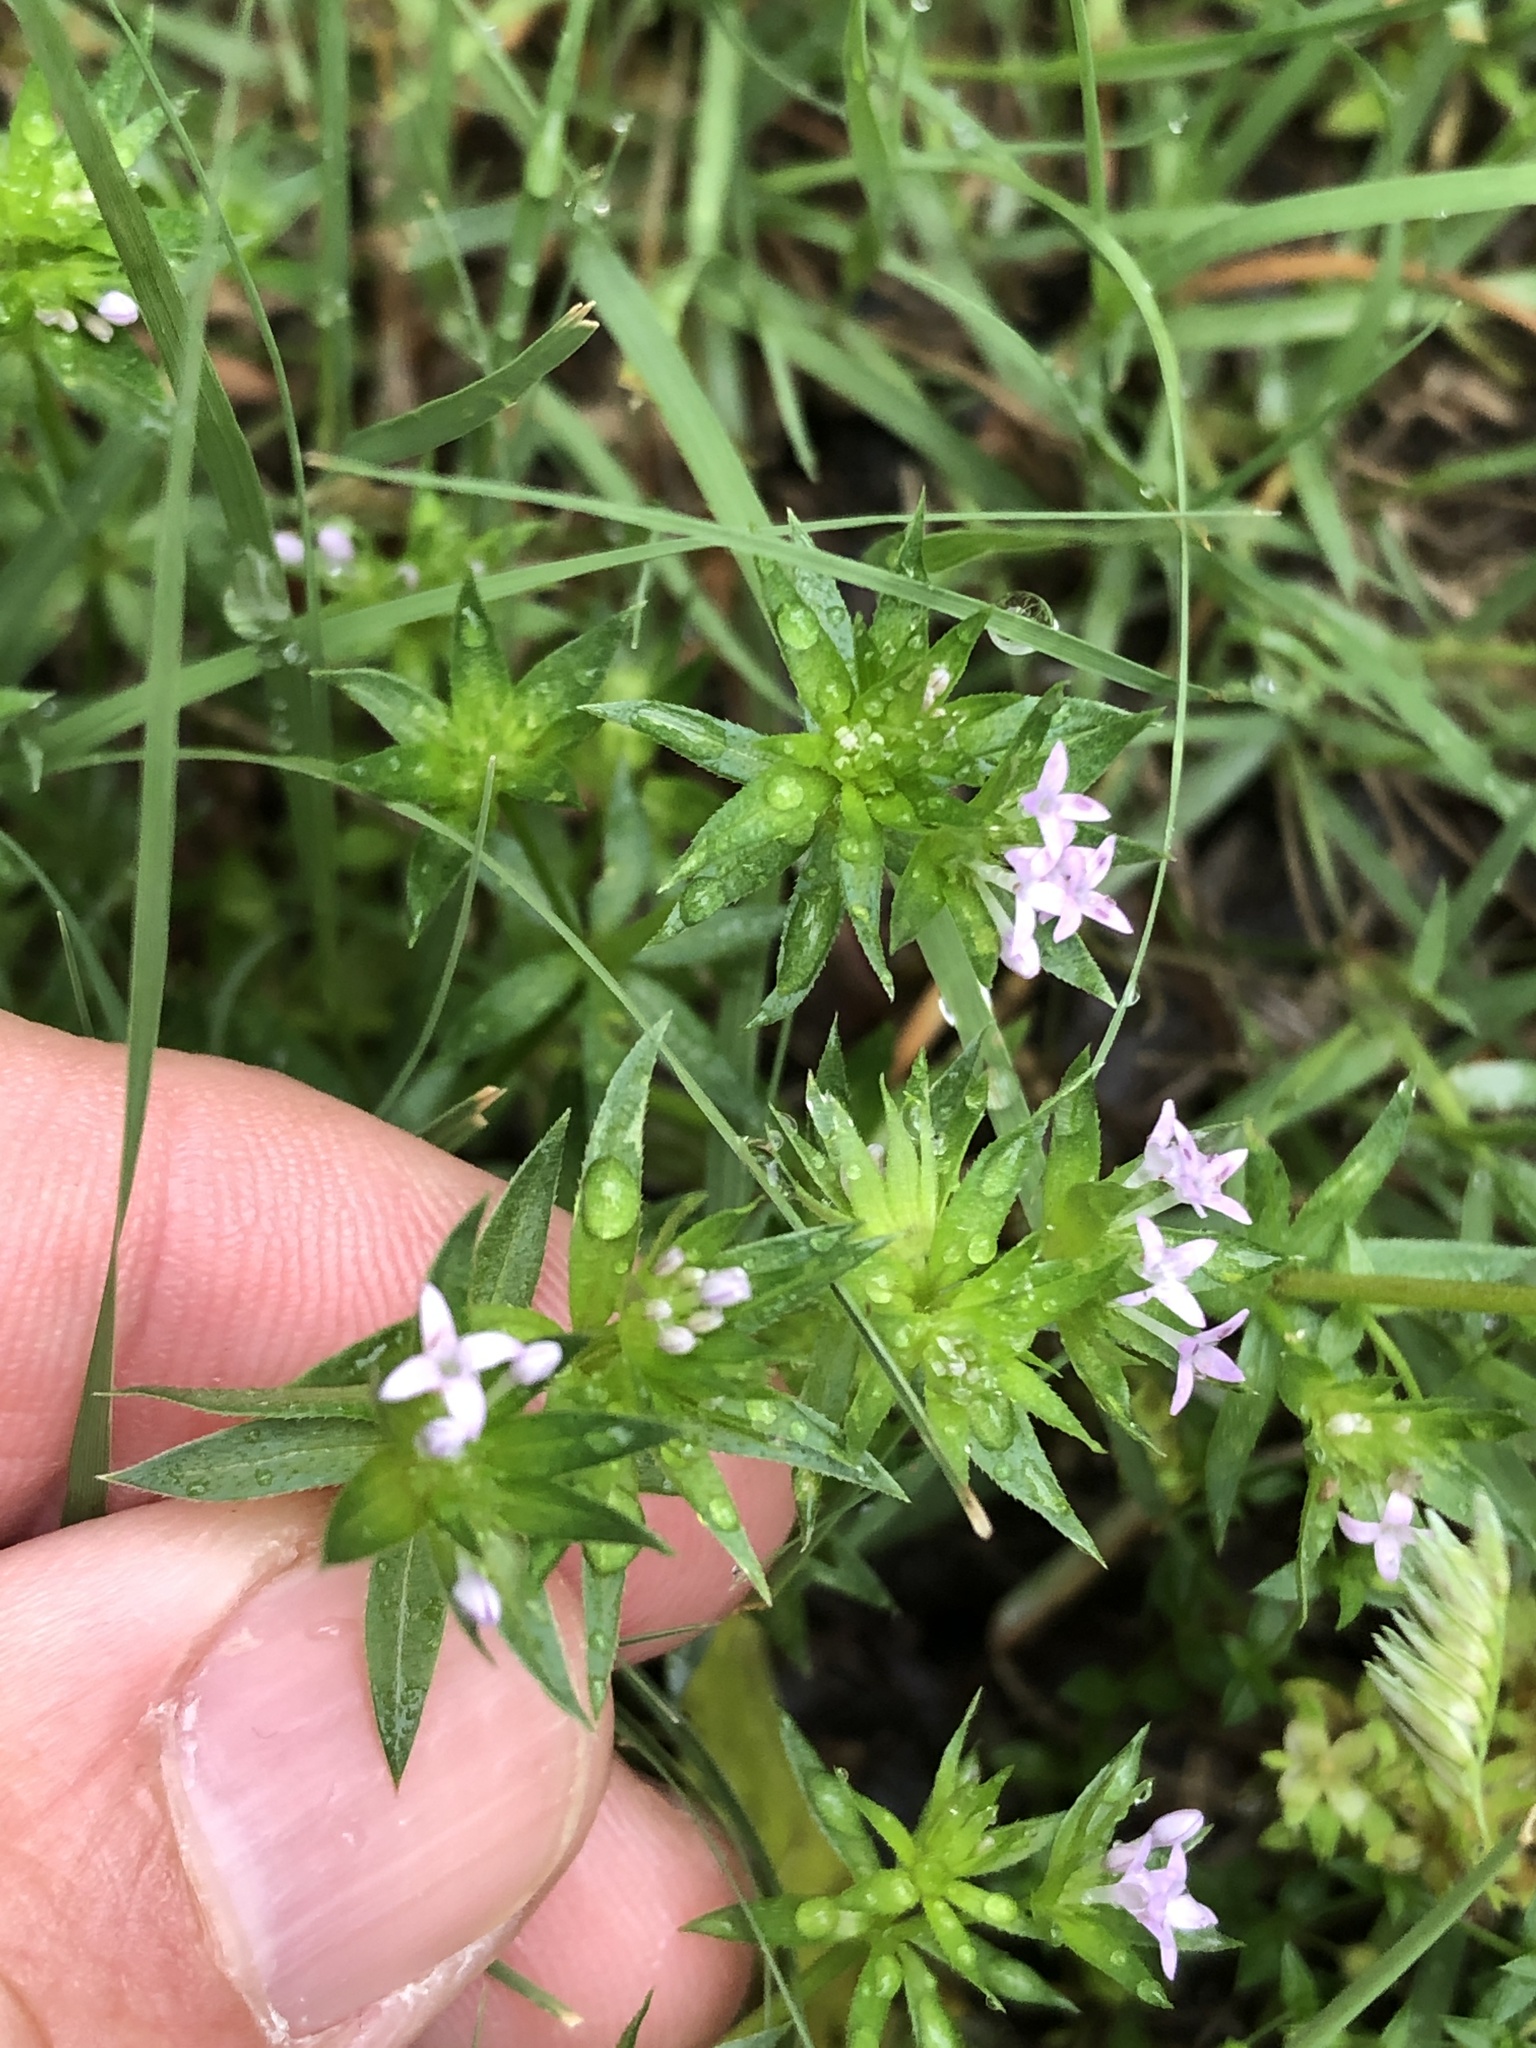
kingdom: Plantae
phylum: Tracheophyta
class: Magnoliopsida
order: Gentianales
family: Rubiaceae
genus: Sherardia
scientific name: Sherardia arvensis
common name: Field madder
